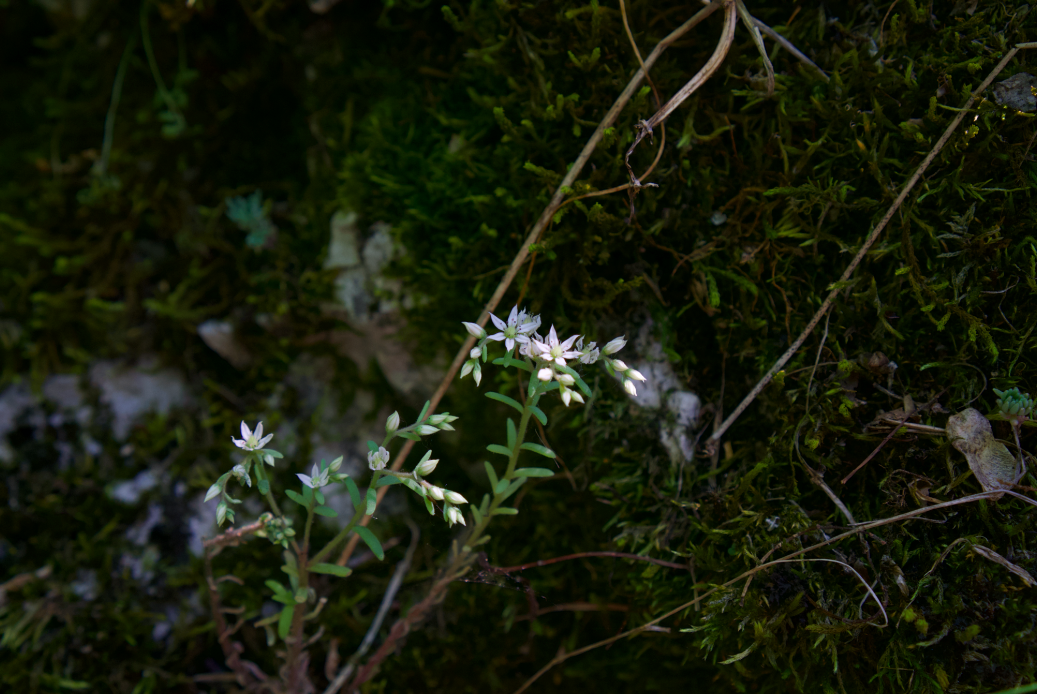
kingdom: Plantae
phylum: Tracheophyta
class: Magnoliopsida
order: Saxifragales
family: Crassulaceae
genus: Sedum
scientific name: Sedum hispanicum
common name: Spanish stonecrop
